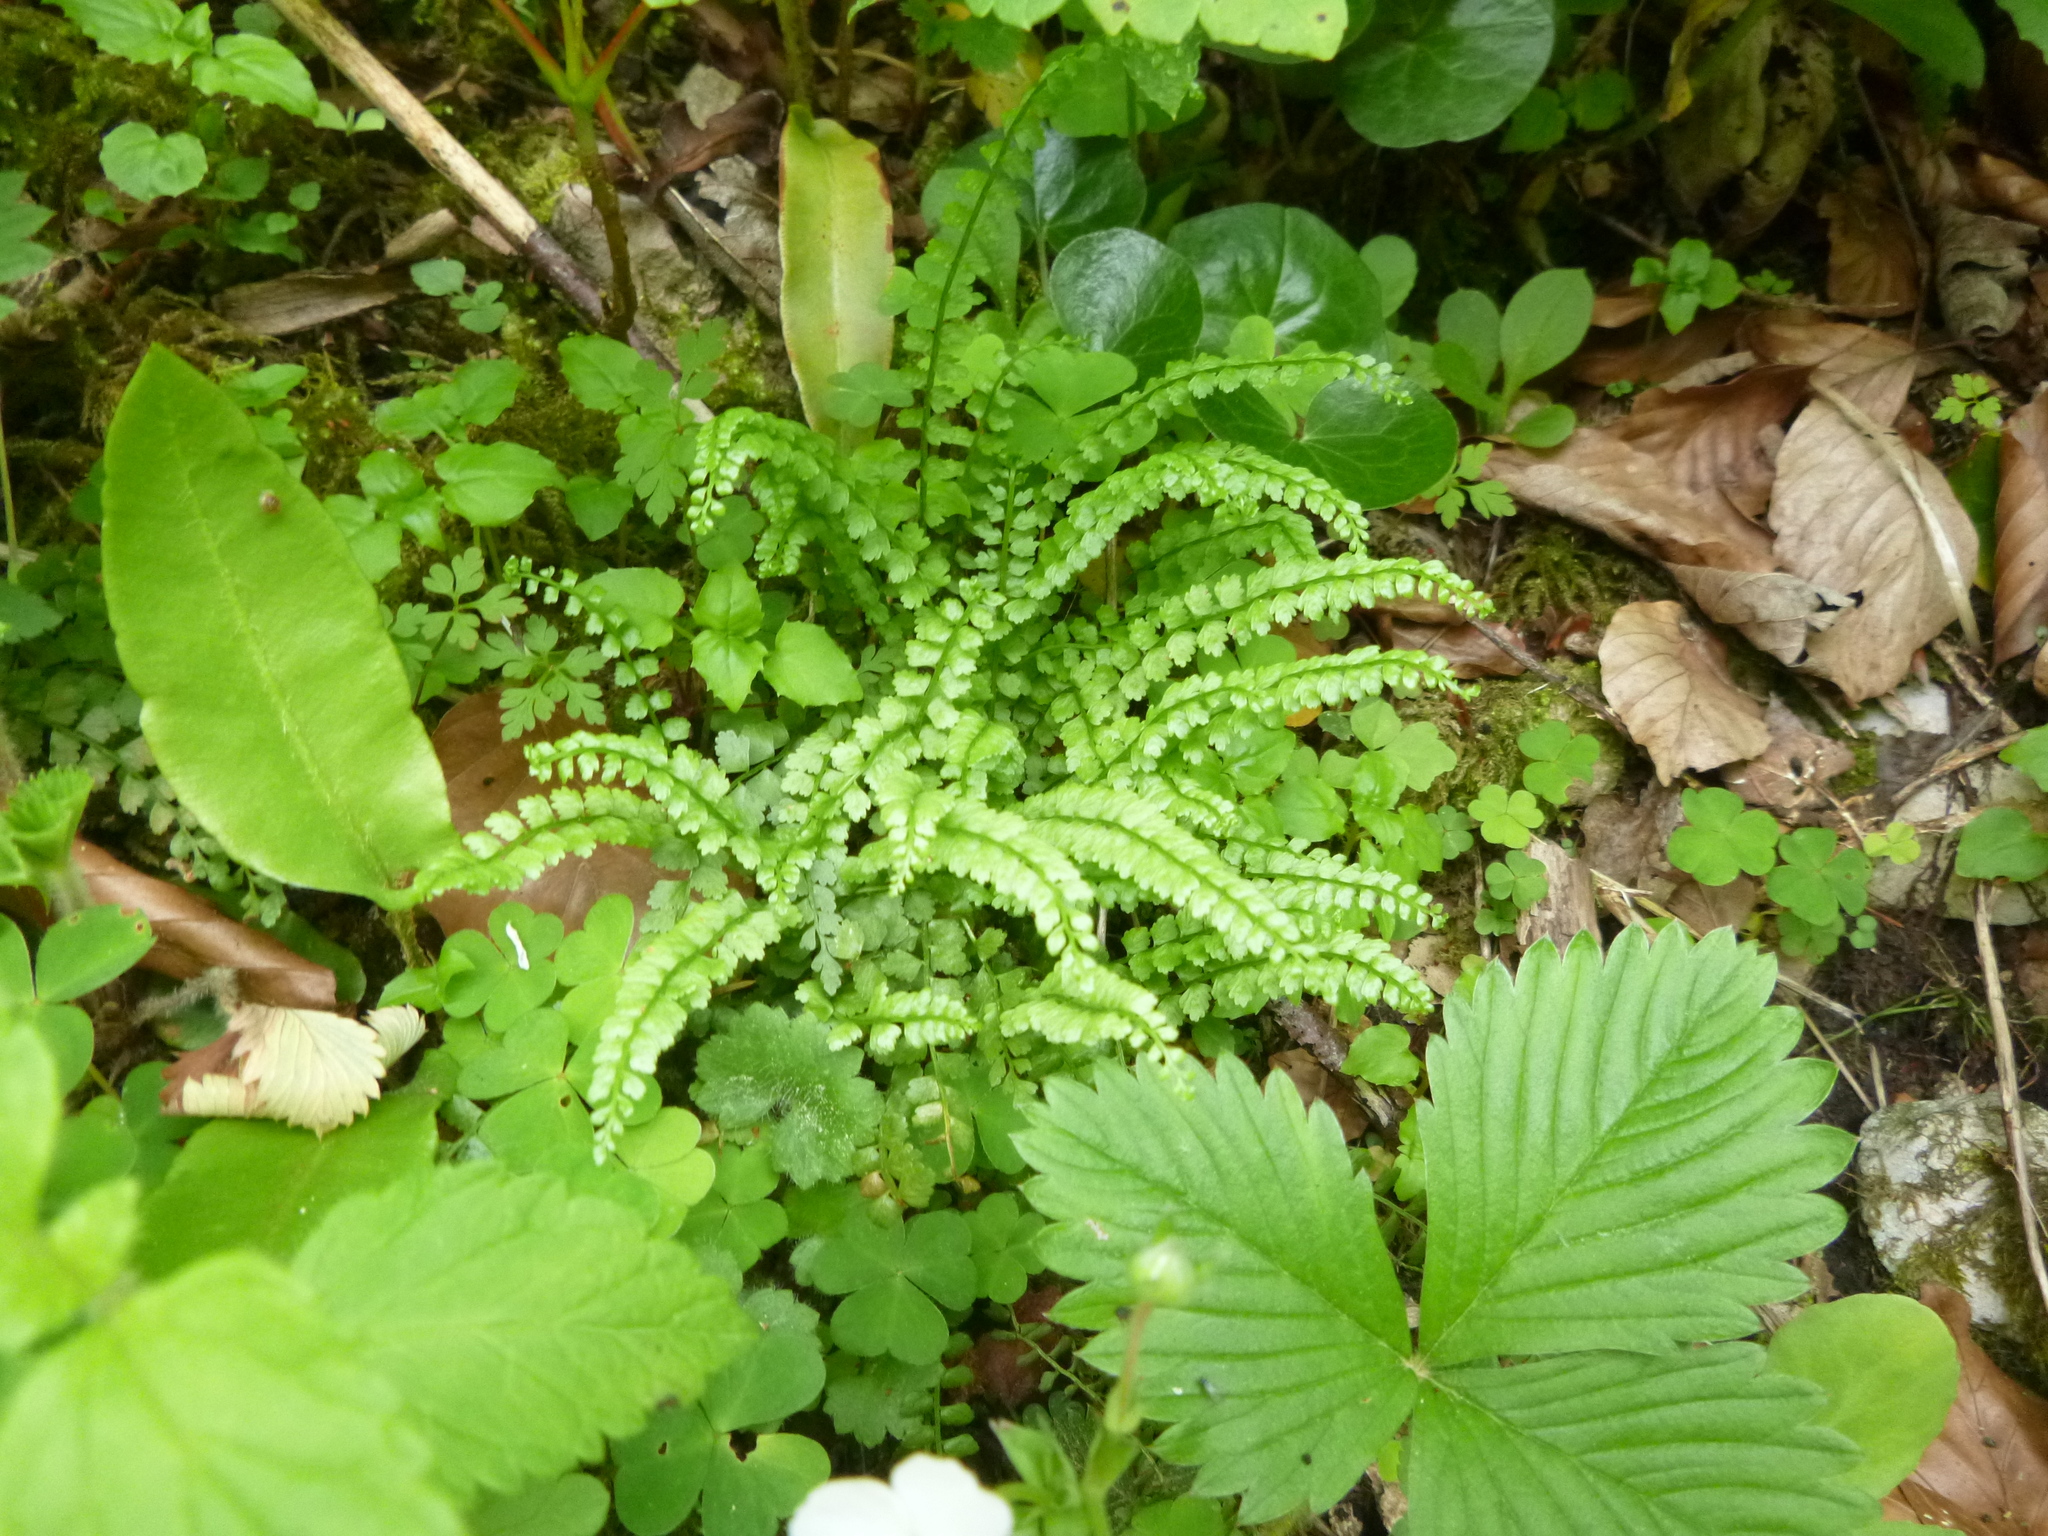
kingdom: Plantae
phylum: Tracheophyta
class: Polypodiopsida
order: Polypodiales
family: Aspleniaceae
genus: Asplenium
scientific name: Asplenium viride
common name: Green spleenwort
